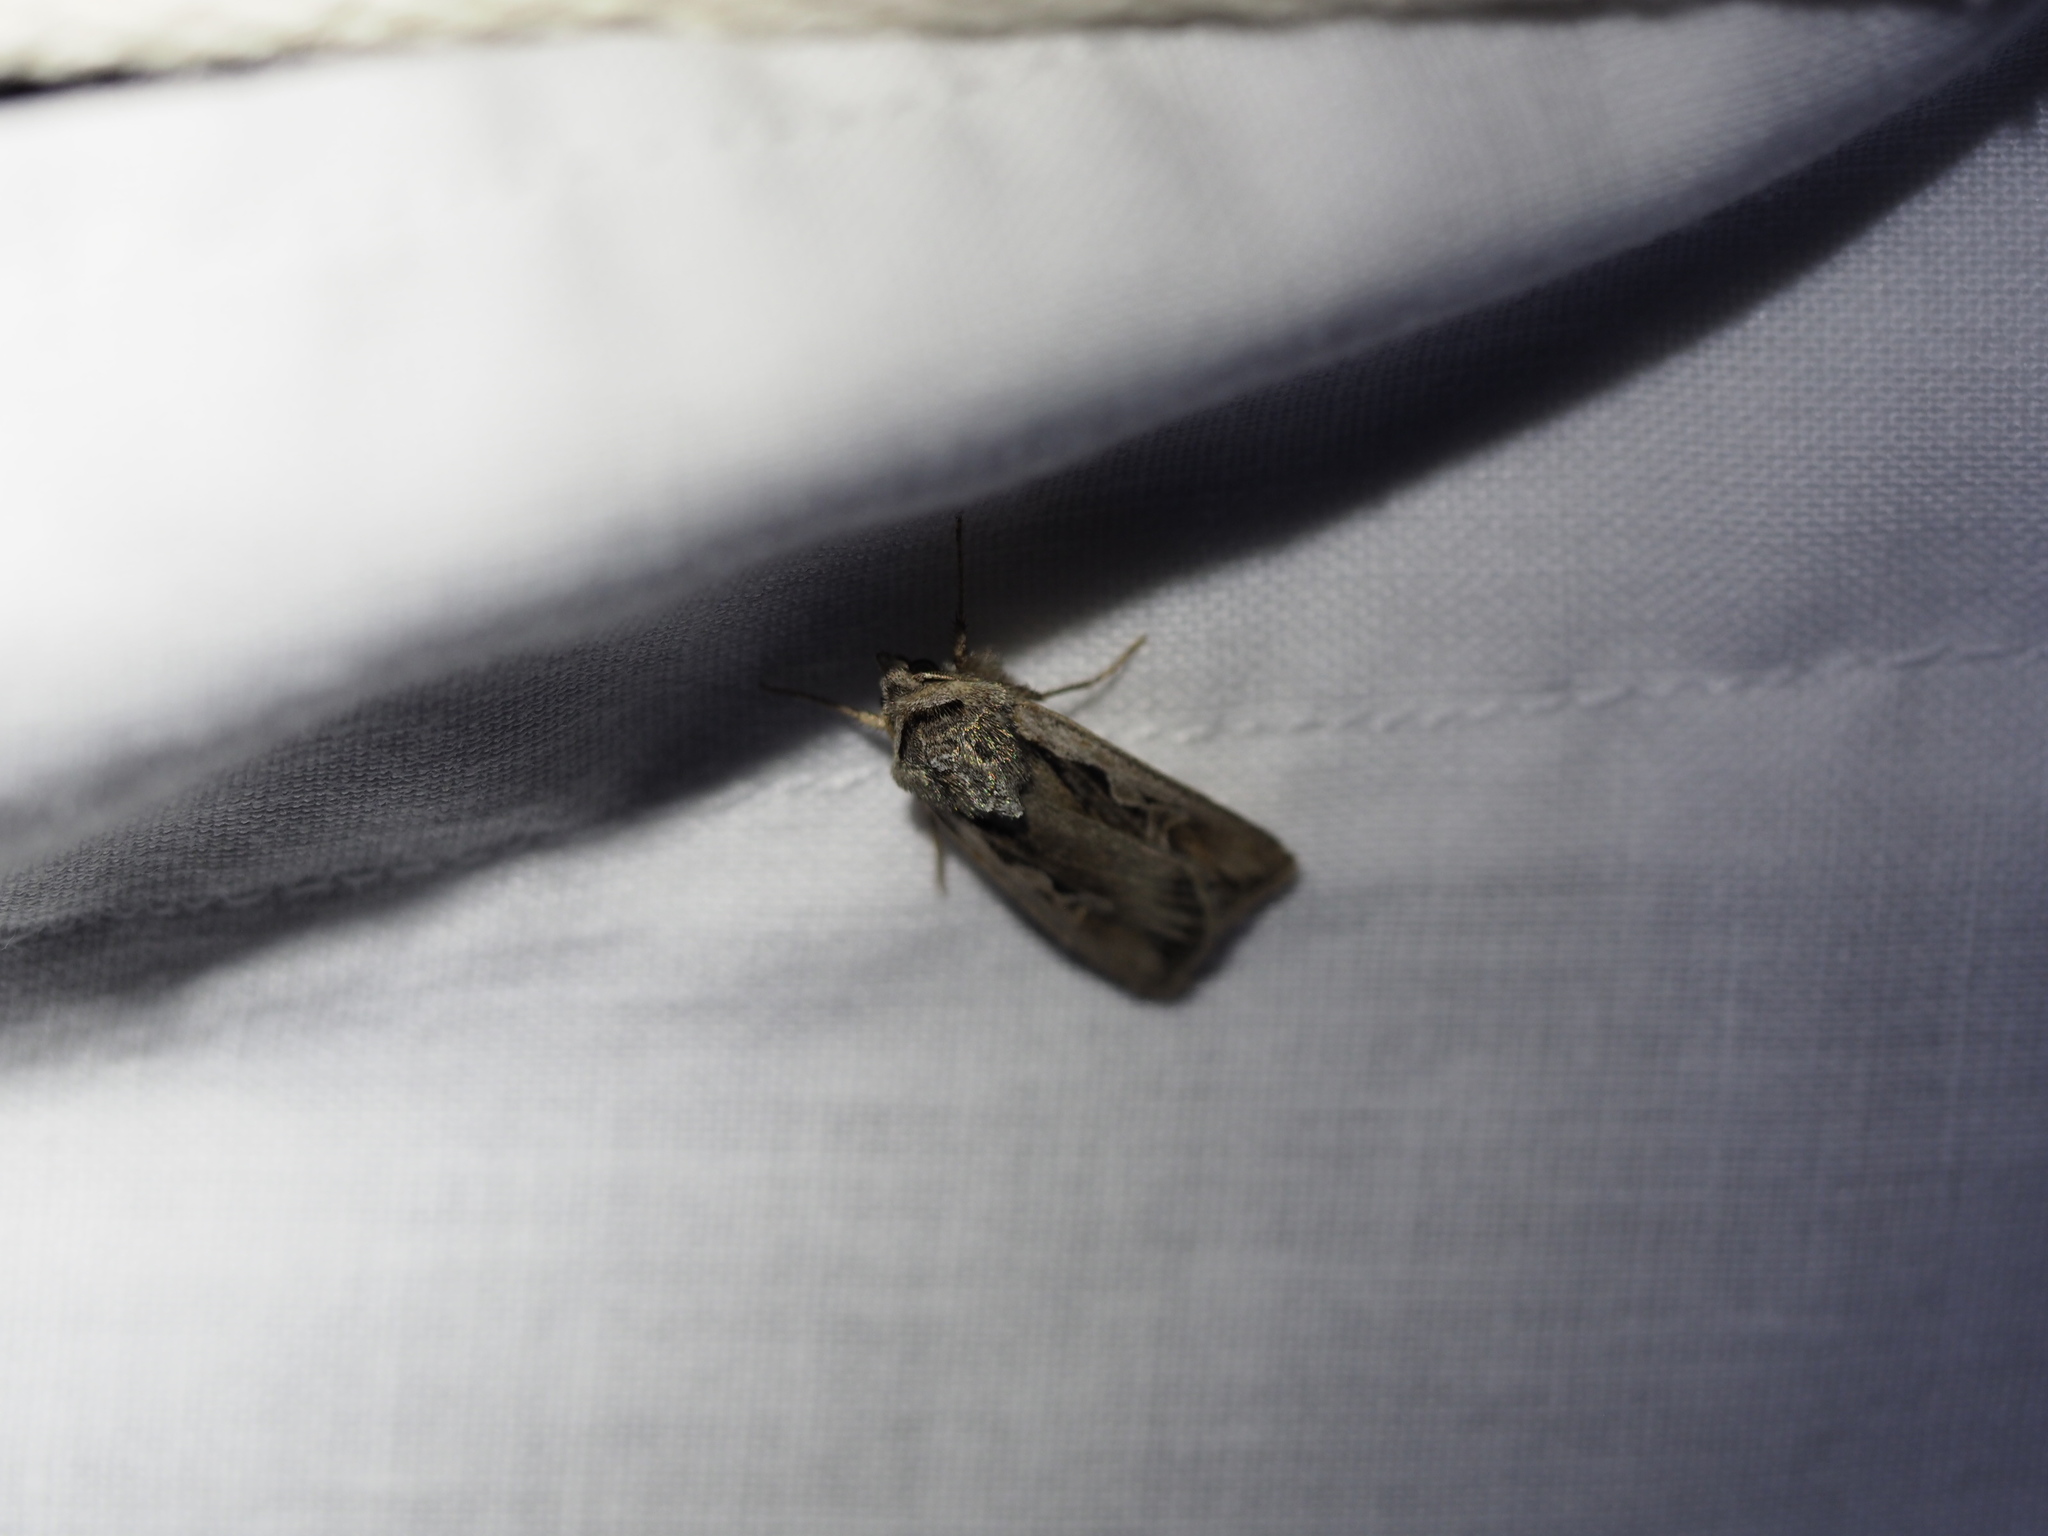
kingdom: Animalia
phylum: Arthropoda
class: Insecta
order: Lepidoptera
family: Noctuidae
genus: Euxoa
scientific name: Euxoa hollemani
